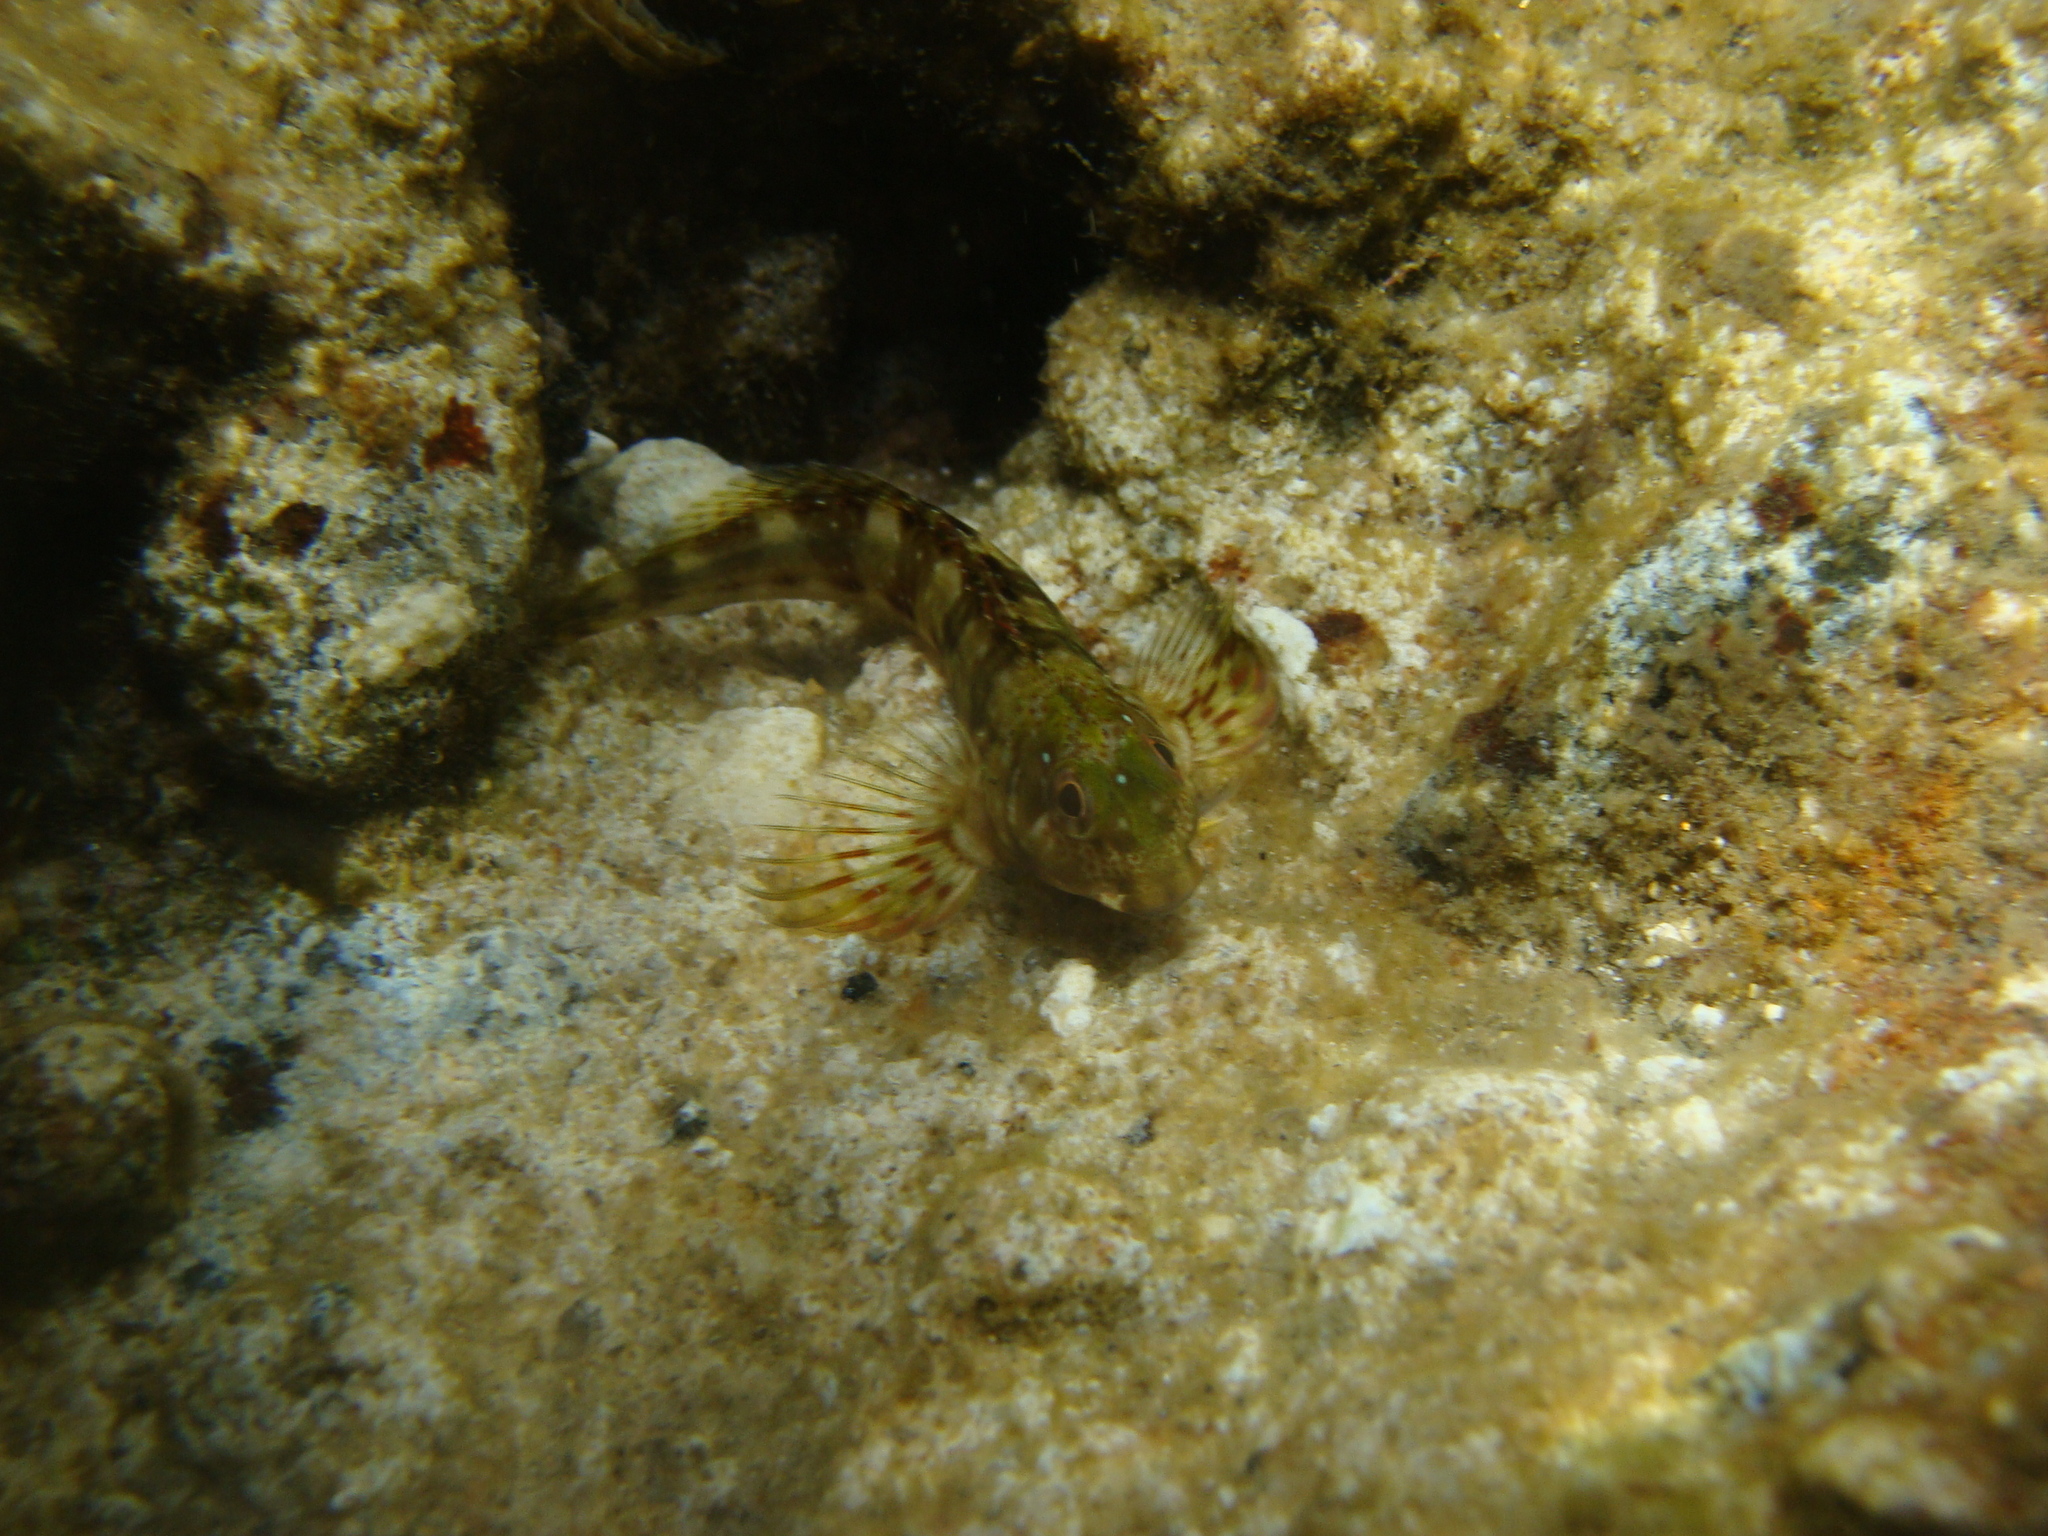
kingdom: Animalia
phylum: Chordata
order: Perciformes
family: Blenniidae
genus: Scartella
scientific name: Scartella cristata
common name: Molly miller
